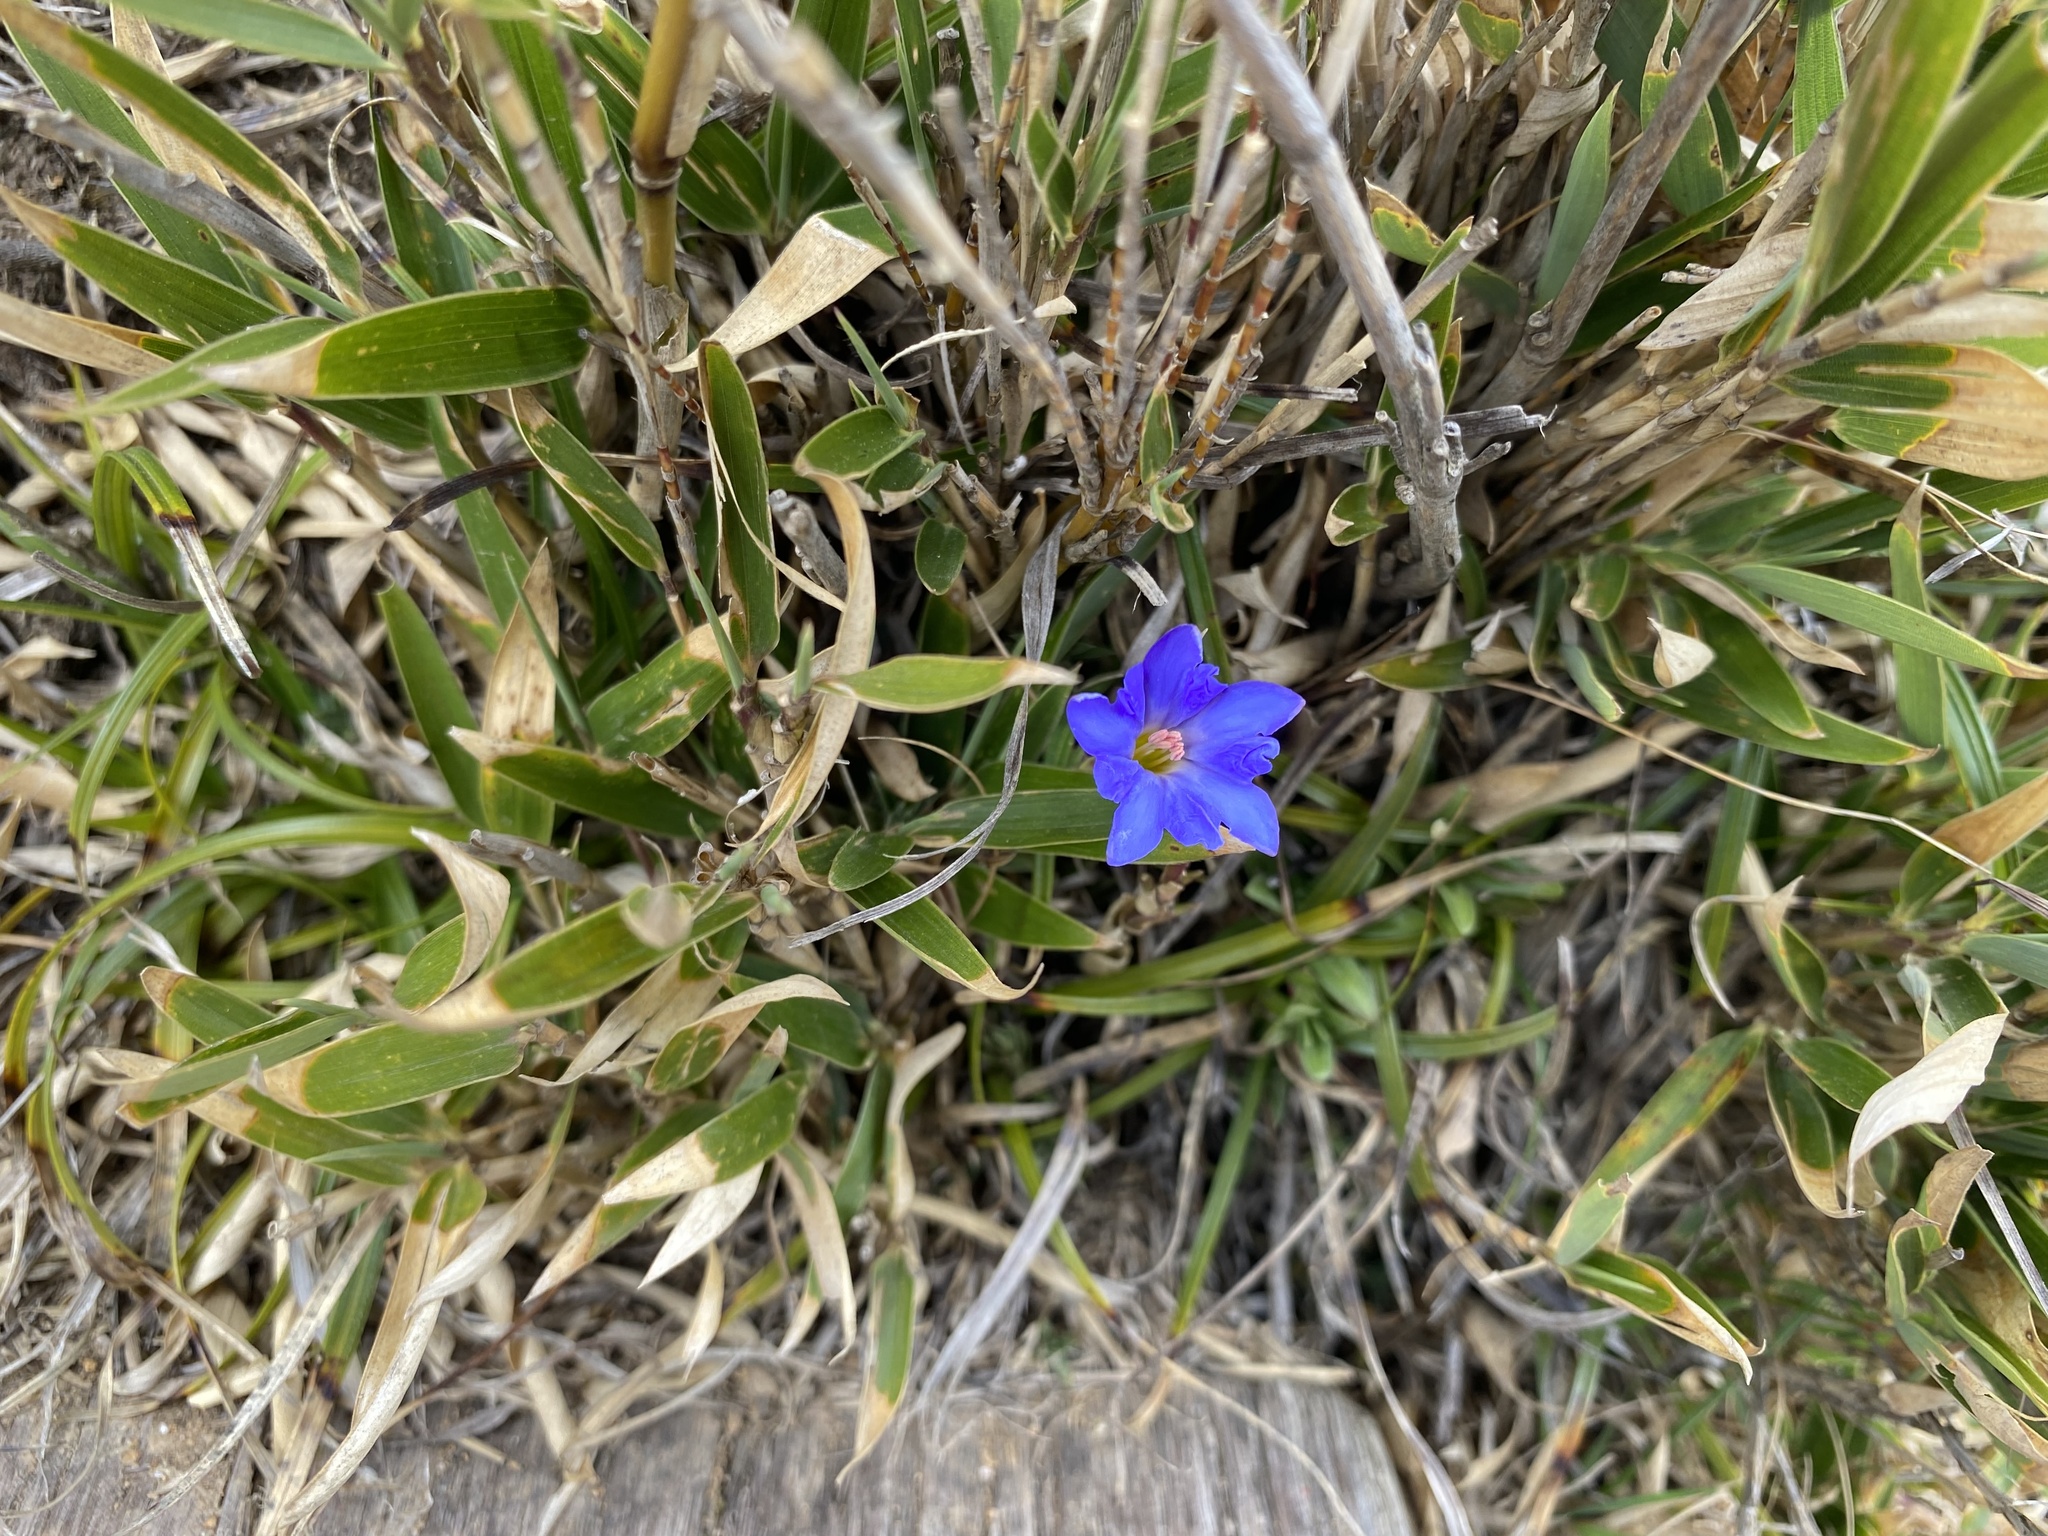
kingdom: Plantae
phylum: Tracheophyta
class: Magnoliopsida
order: Gentianales
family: Gentianaceae
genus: Gentiana
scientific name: Gentiana arisanensis
